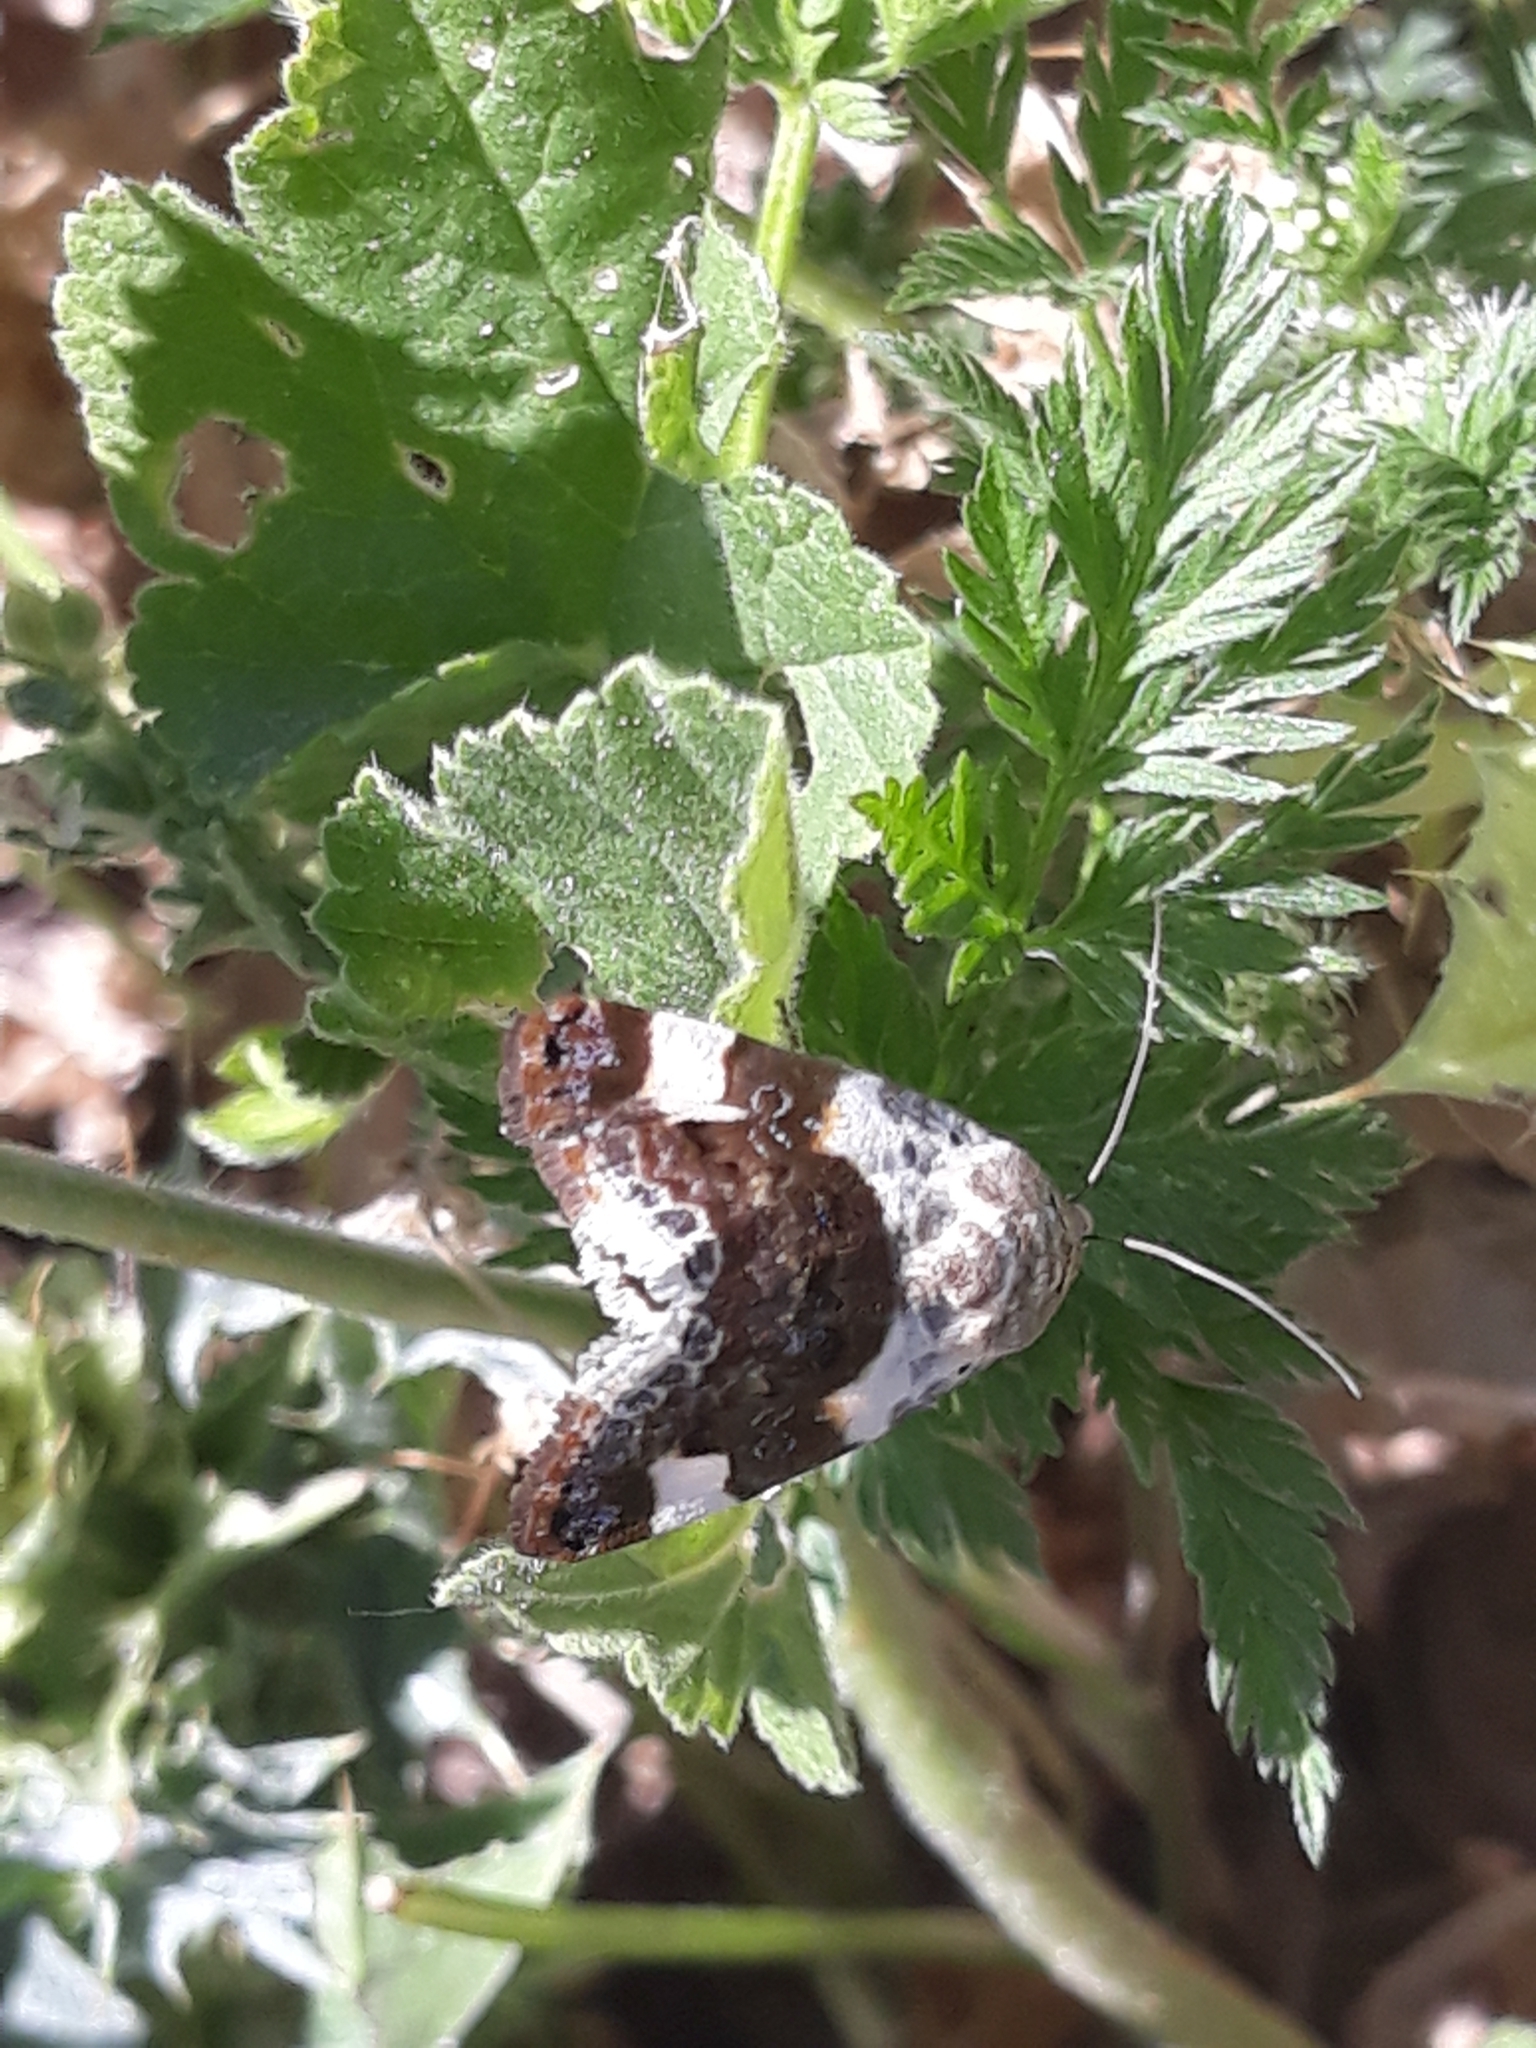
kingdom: Animalia
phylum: Arthropoda
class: Insecta
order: Lepidoptera
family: Noctuidae
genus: Acontia
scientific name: Acontia lucida
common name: Pale shoulder
